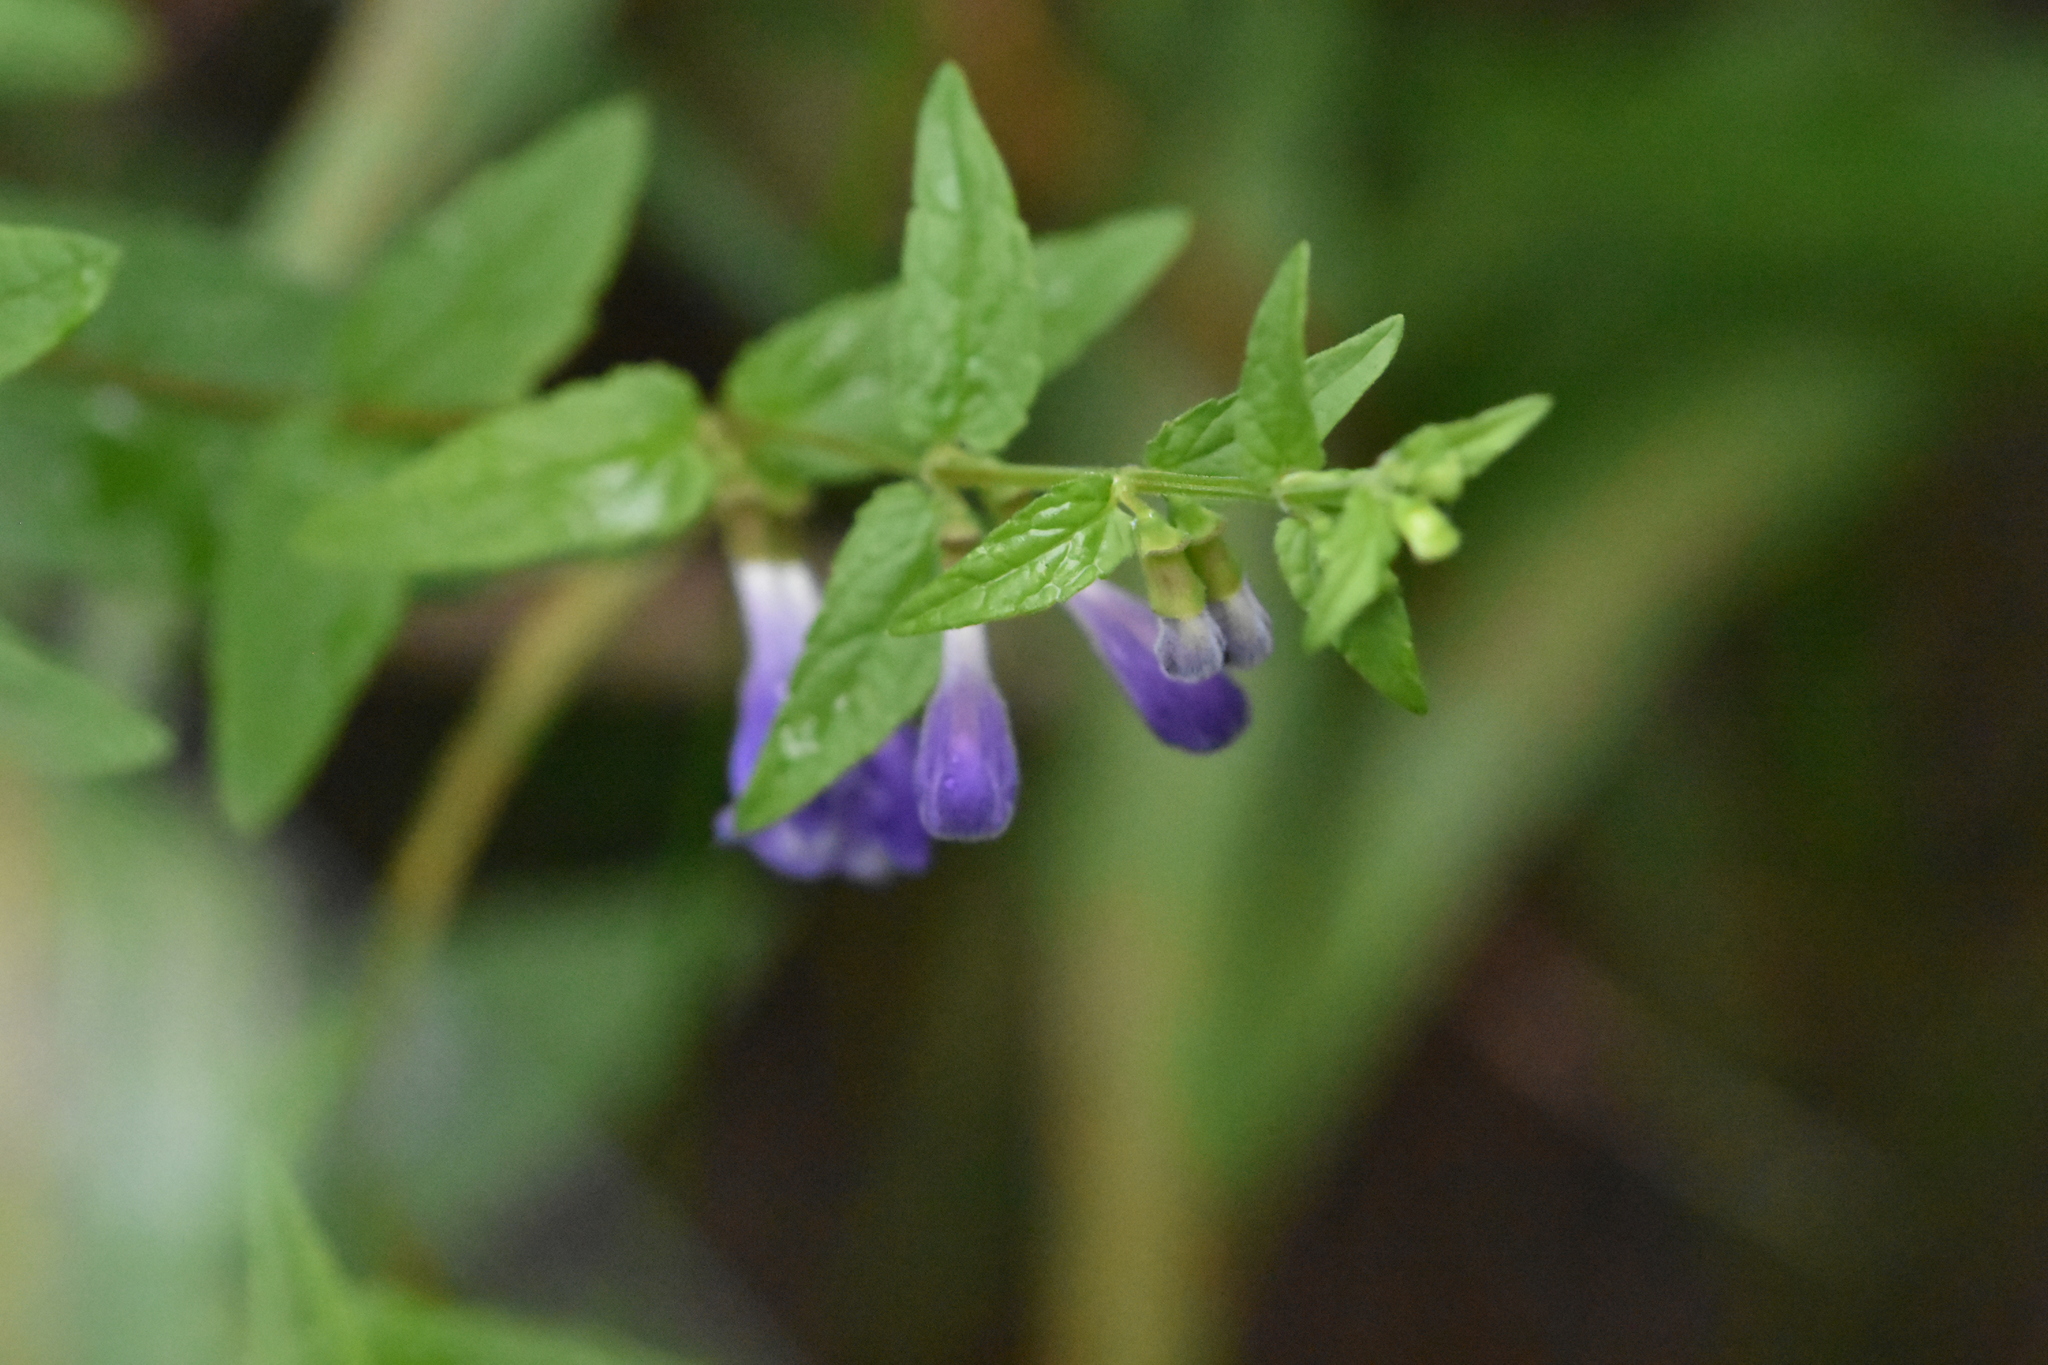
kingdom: Plantae
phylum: Tracheophyta
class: Magnoliopsida
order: Lamiales
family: Lamiaceae
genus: Scutellaria
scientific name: Scutellaria galericulata
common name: Skullcap
